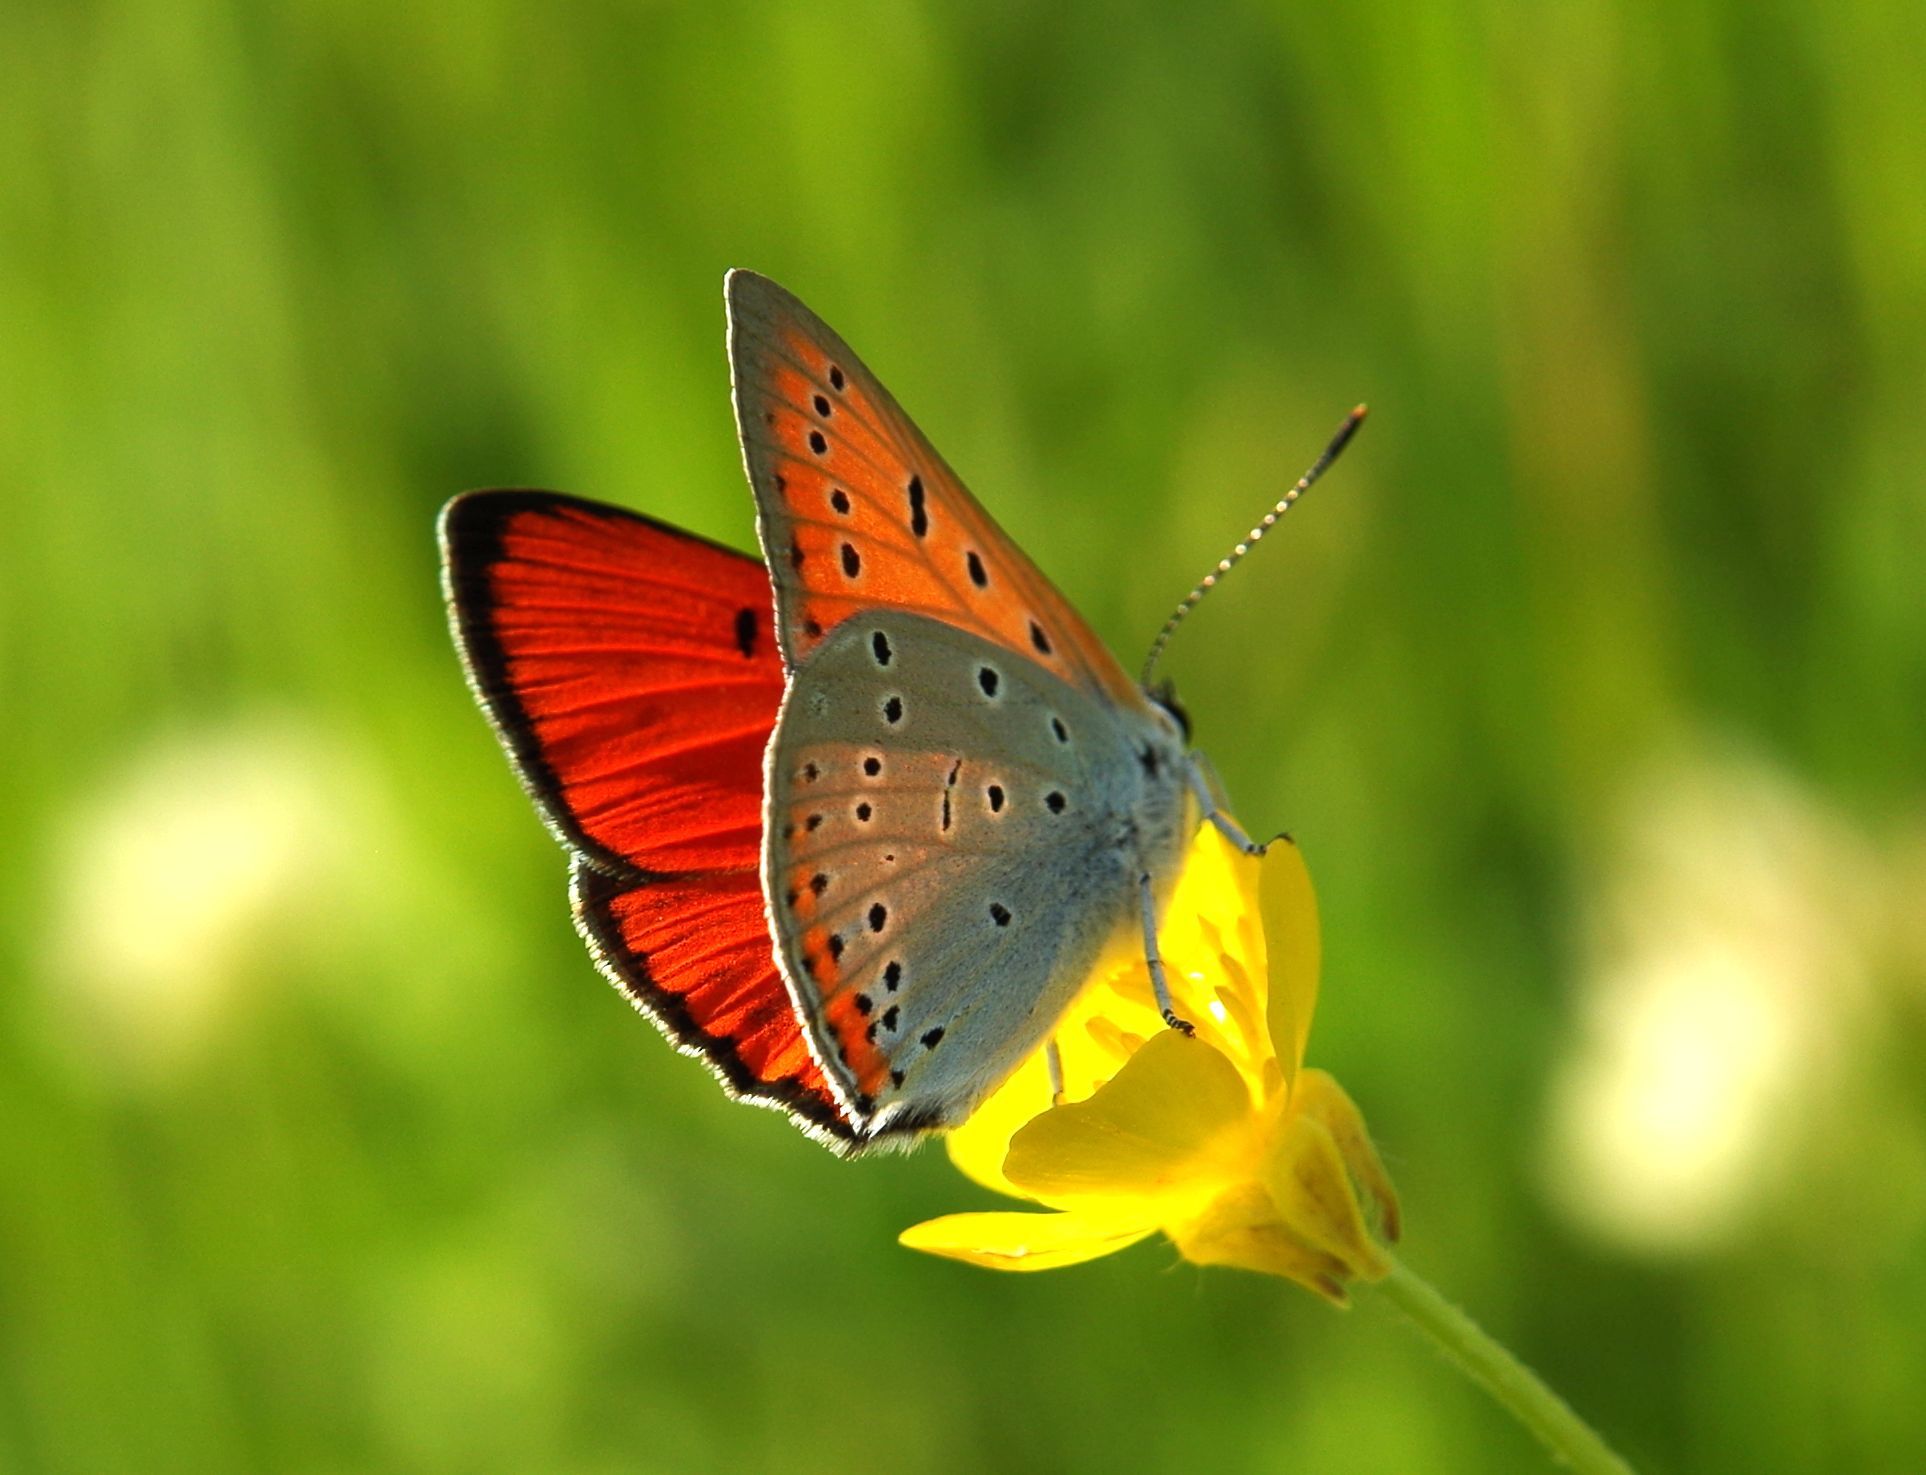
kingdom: Animalia
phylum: Arthropoda
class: Insecta
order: Lepidoptera
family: Lycaenidae
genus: Lycaena
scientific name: Lycaena dispar
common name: Large copper
